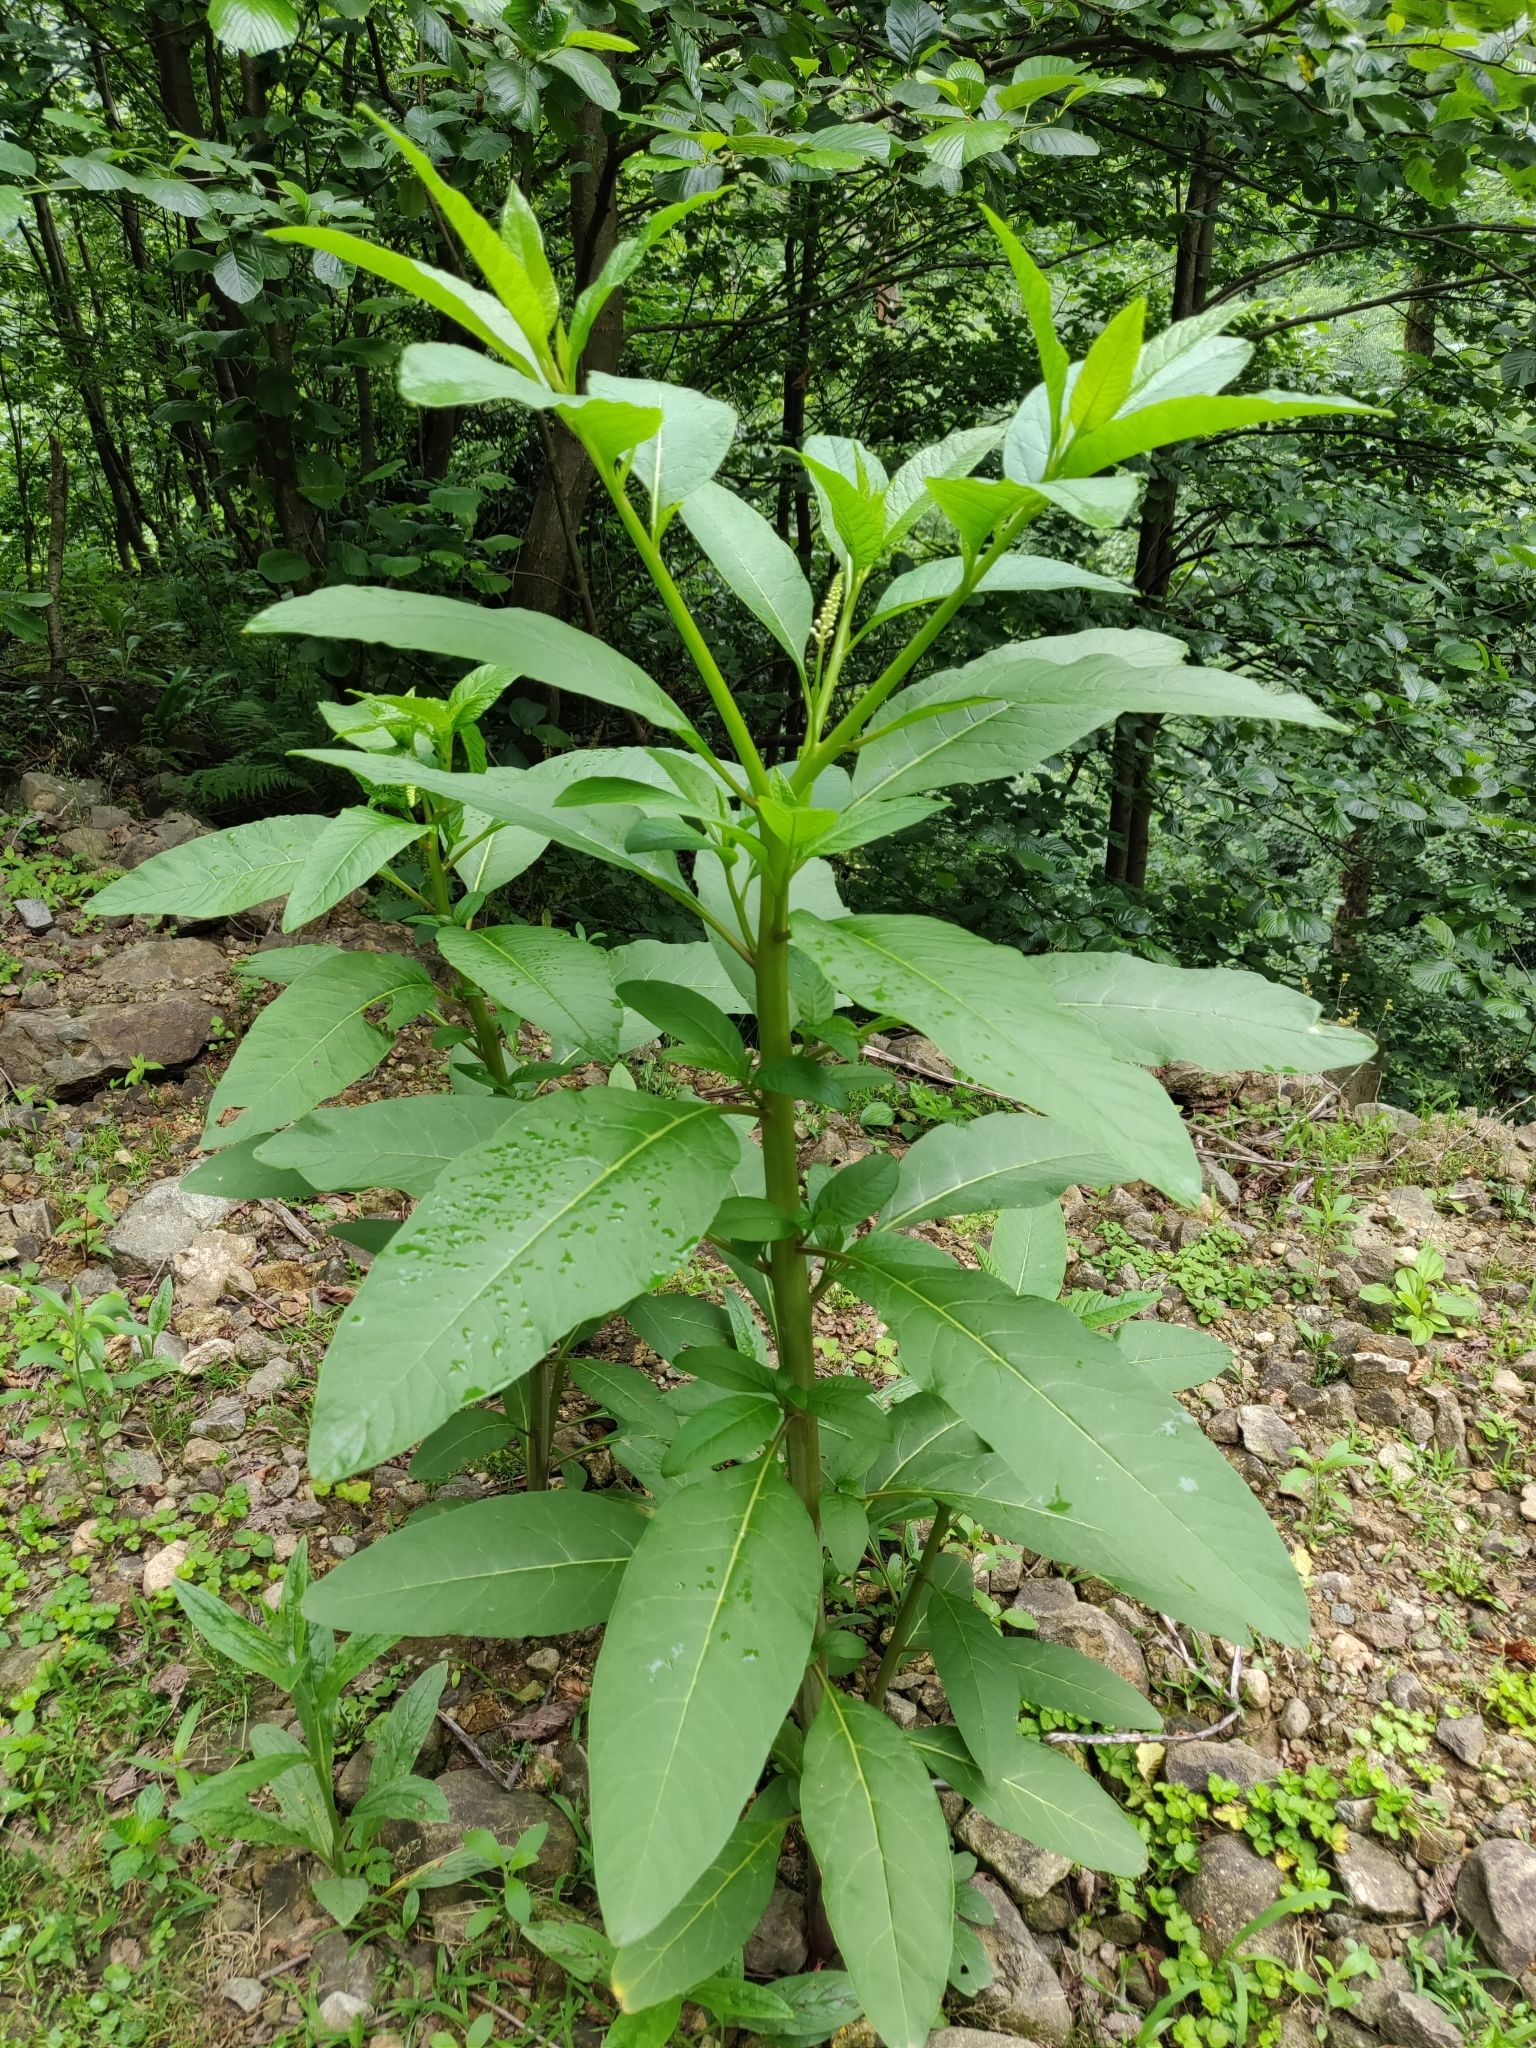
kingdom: Plantae
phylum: Tracheophyta
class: Magnoliopsida
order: Caryophyllales
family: Phytolaccaceae
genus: Phytolacca
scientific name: Phytolacca americana
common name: American pokeweed
